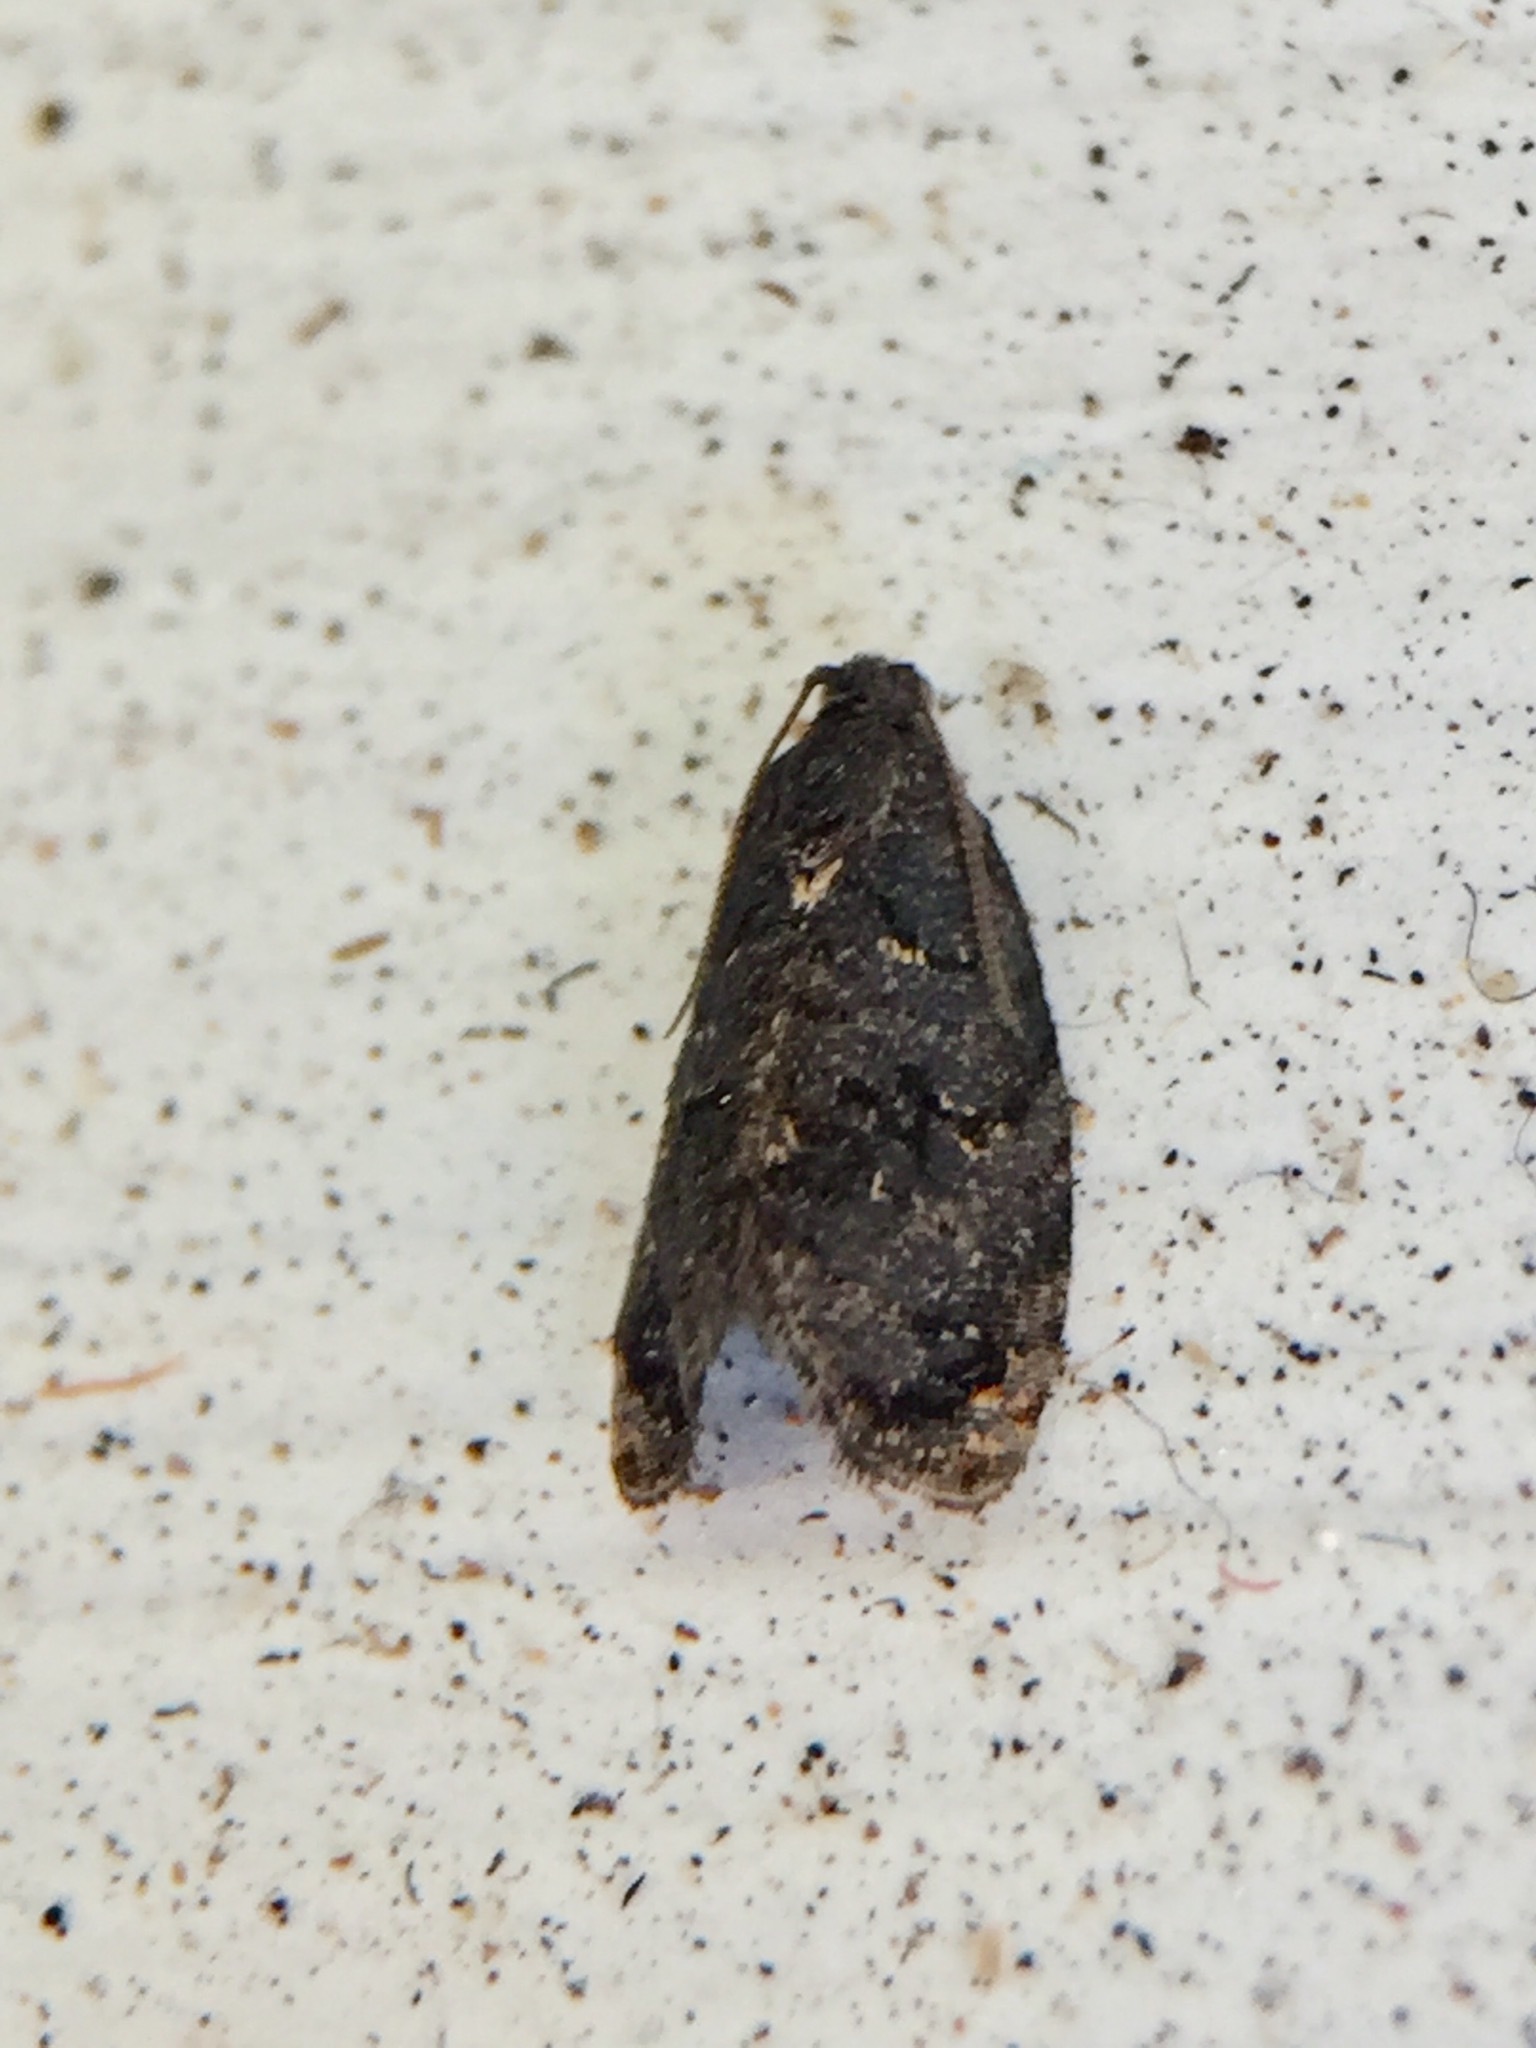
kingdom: Animalia
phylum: Arthropoda
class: Insecta
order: Lepidoptera
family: Tortricidae
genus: Philocryptica
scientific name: Philocryptica polypodii
